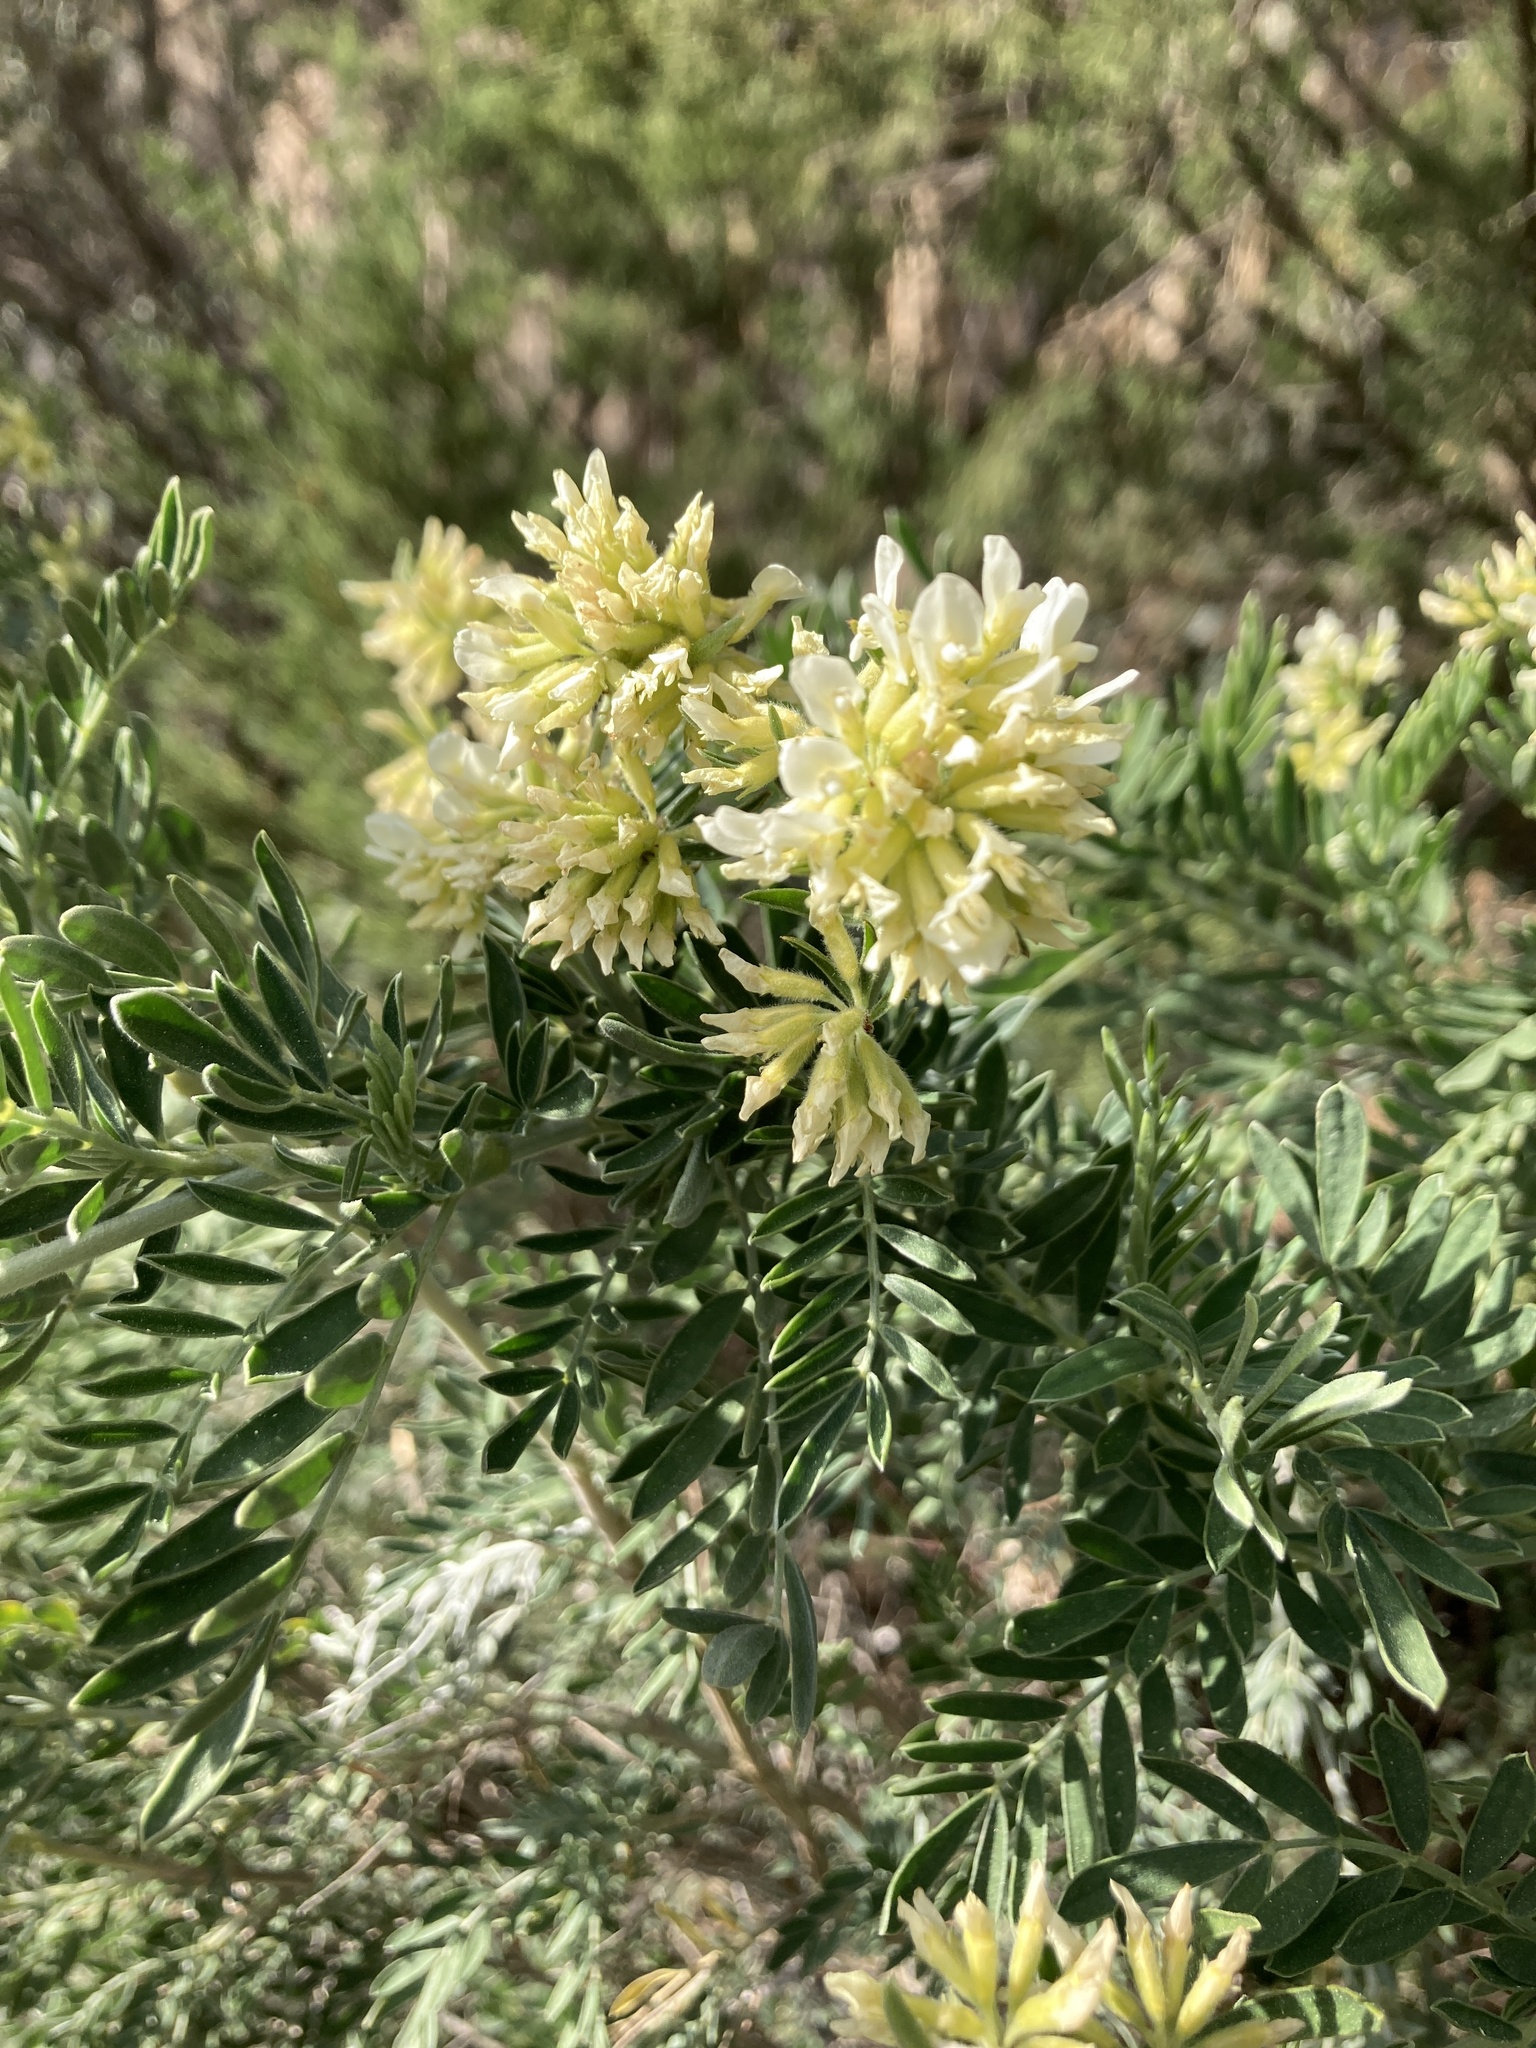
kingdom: Plantae
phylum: Tracheophyta
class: Magnoliopsida
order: Fabales
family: Fabaceae
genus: Anthyllis
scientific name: Anthyllis barba-jovis
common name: Jupiter's-beard
